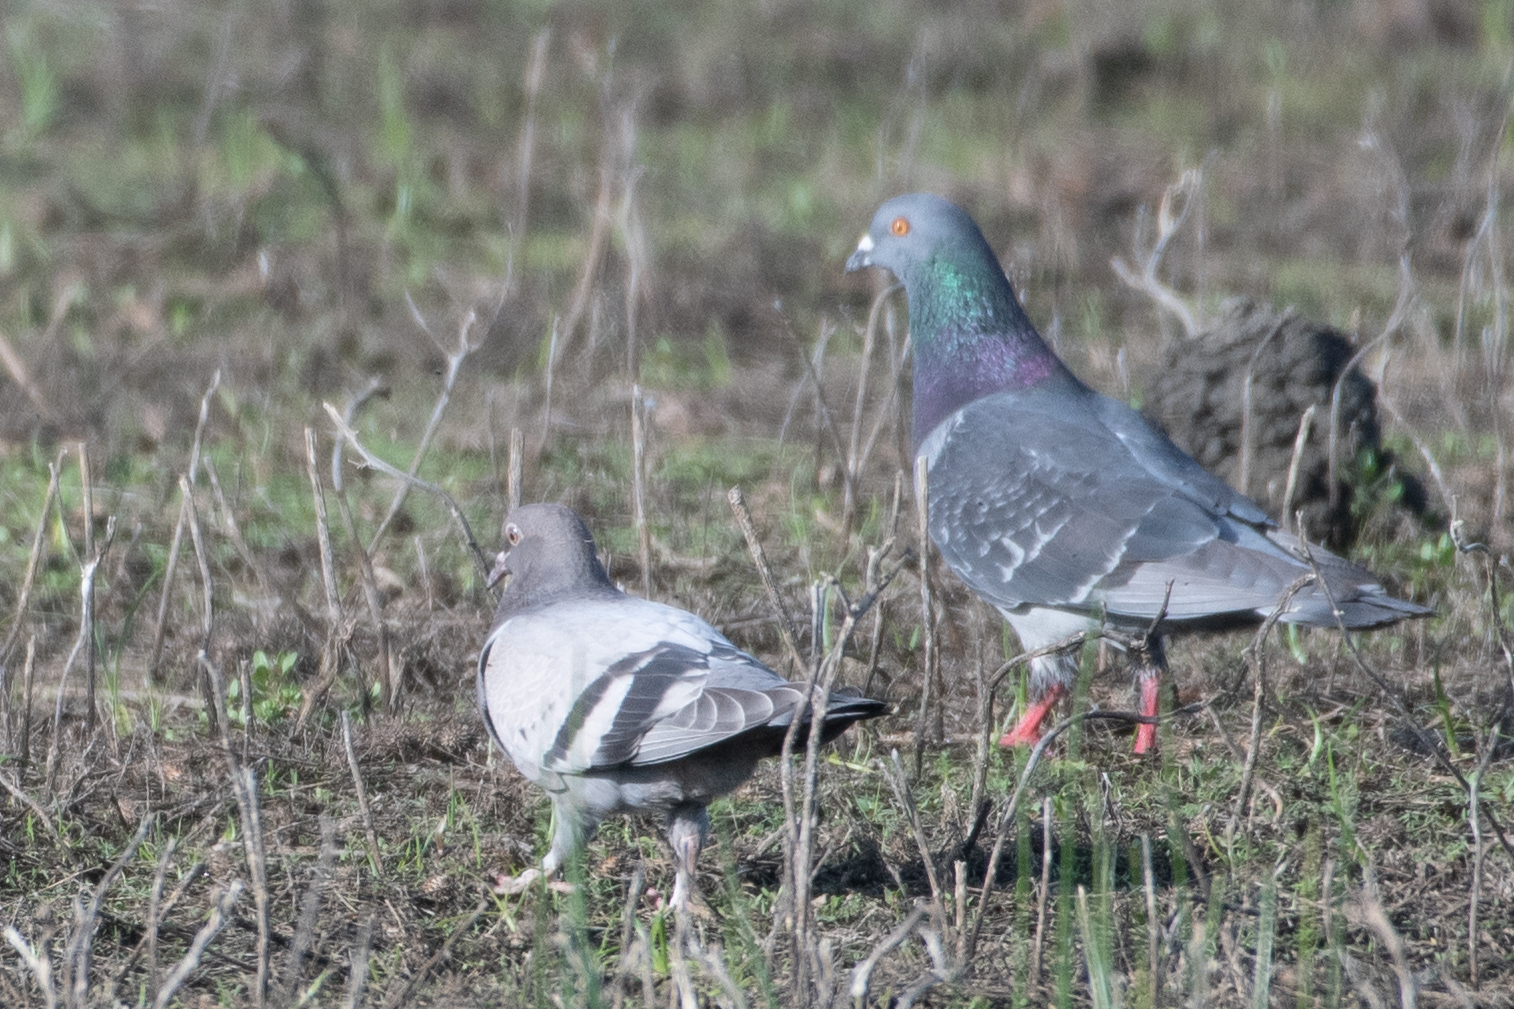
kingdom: Animalia
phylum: Chordata
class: Aves
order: Columbiformes
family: Columbidae
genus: Columba
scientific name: Columba livia
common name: Rock pigeon
